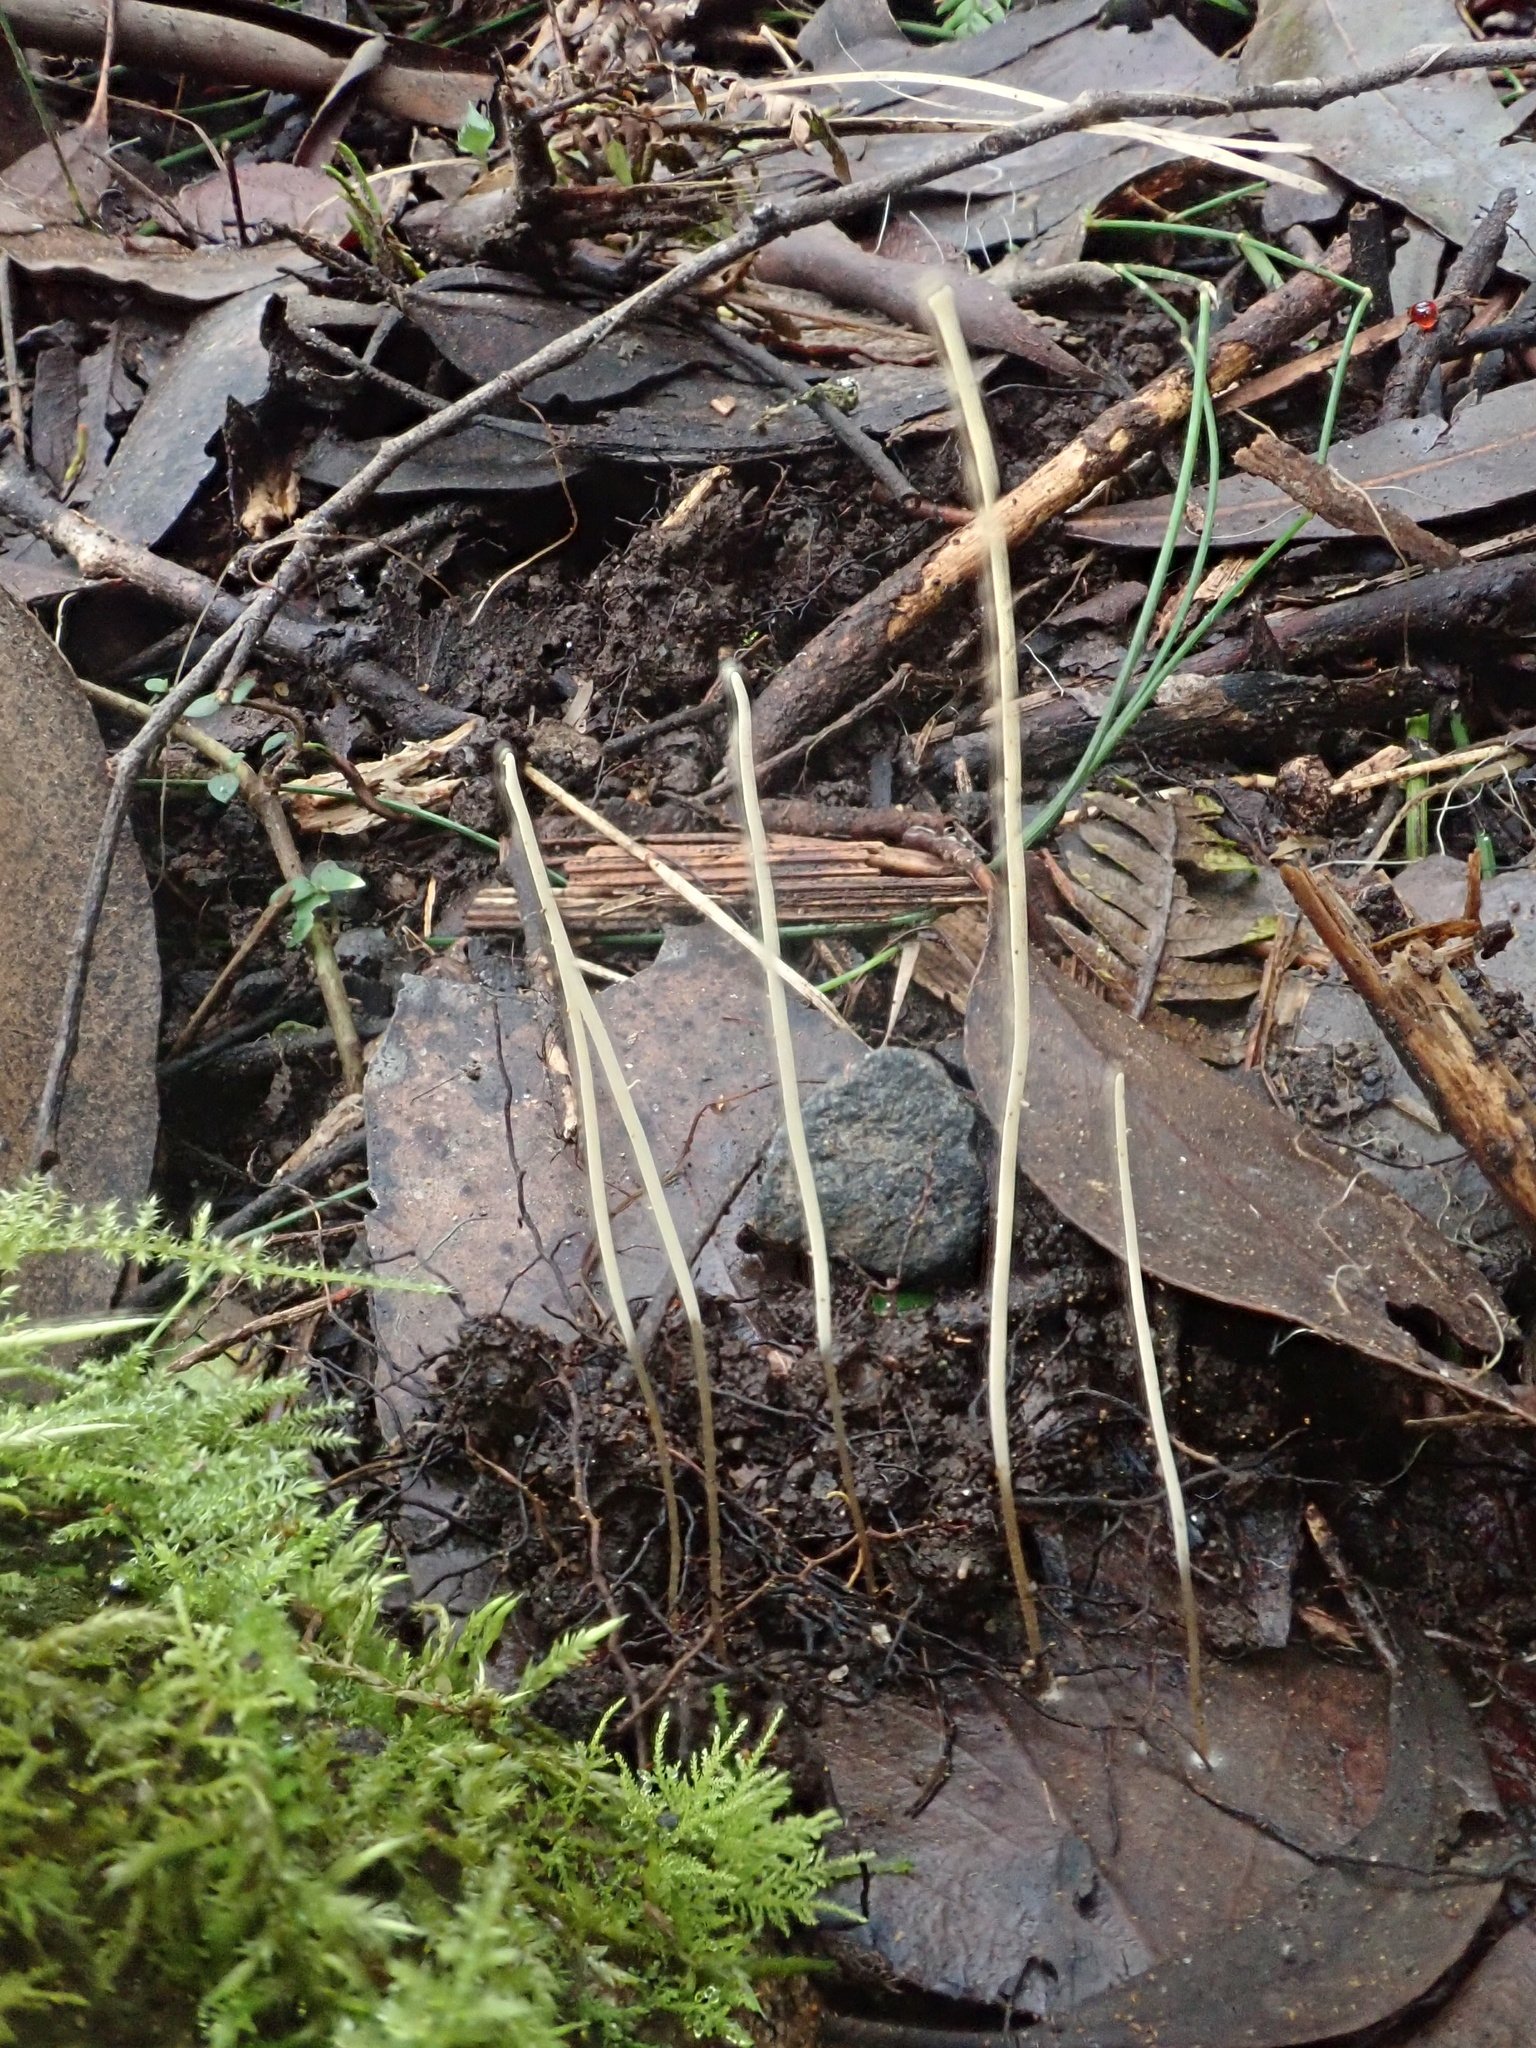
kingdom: Fungi
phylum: Basidiomycota
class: Agaricomycetes
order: Agaricales
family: Typhulaceae
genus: Typhula
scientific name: Typhula juncea
